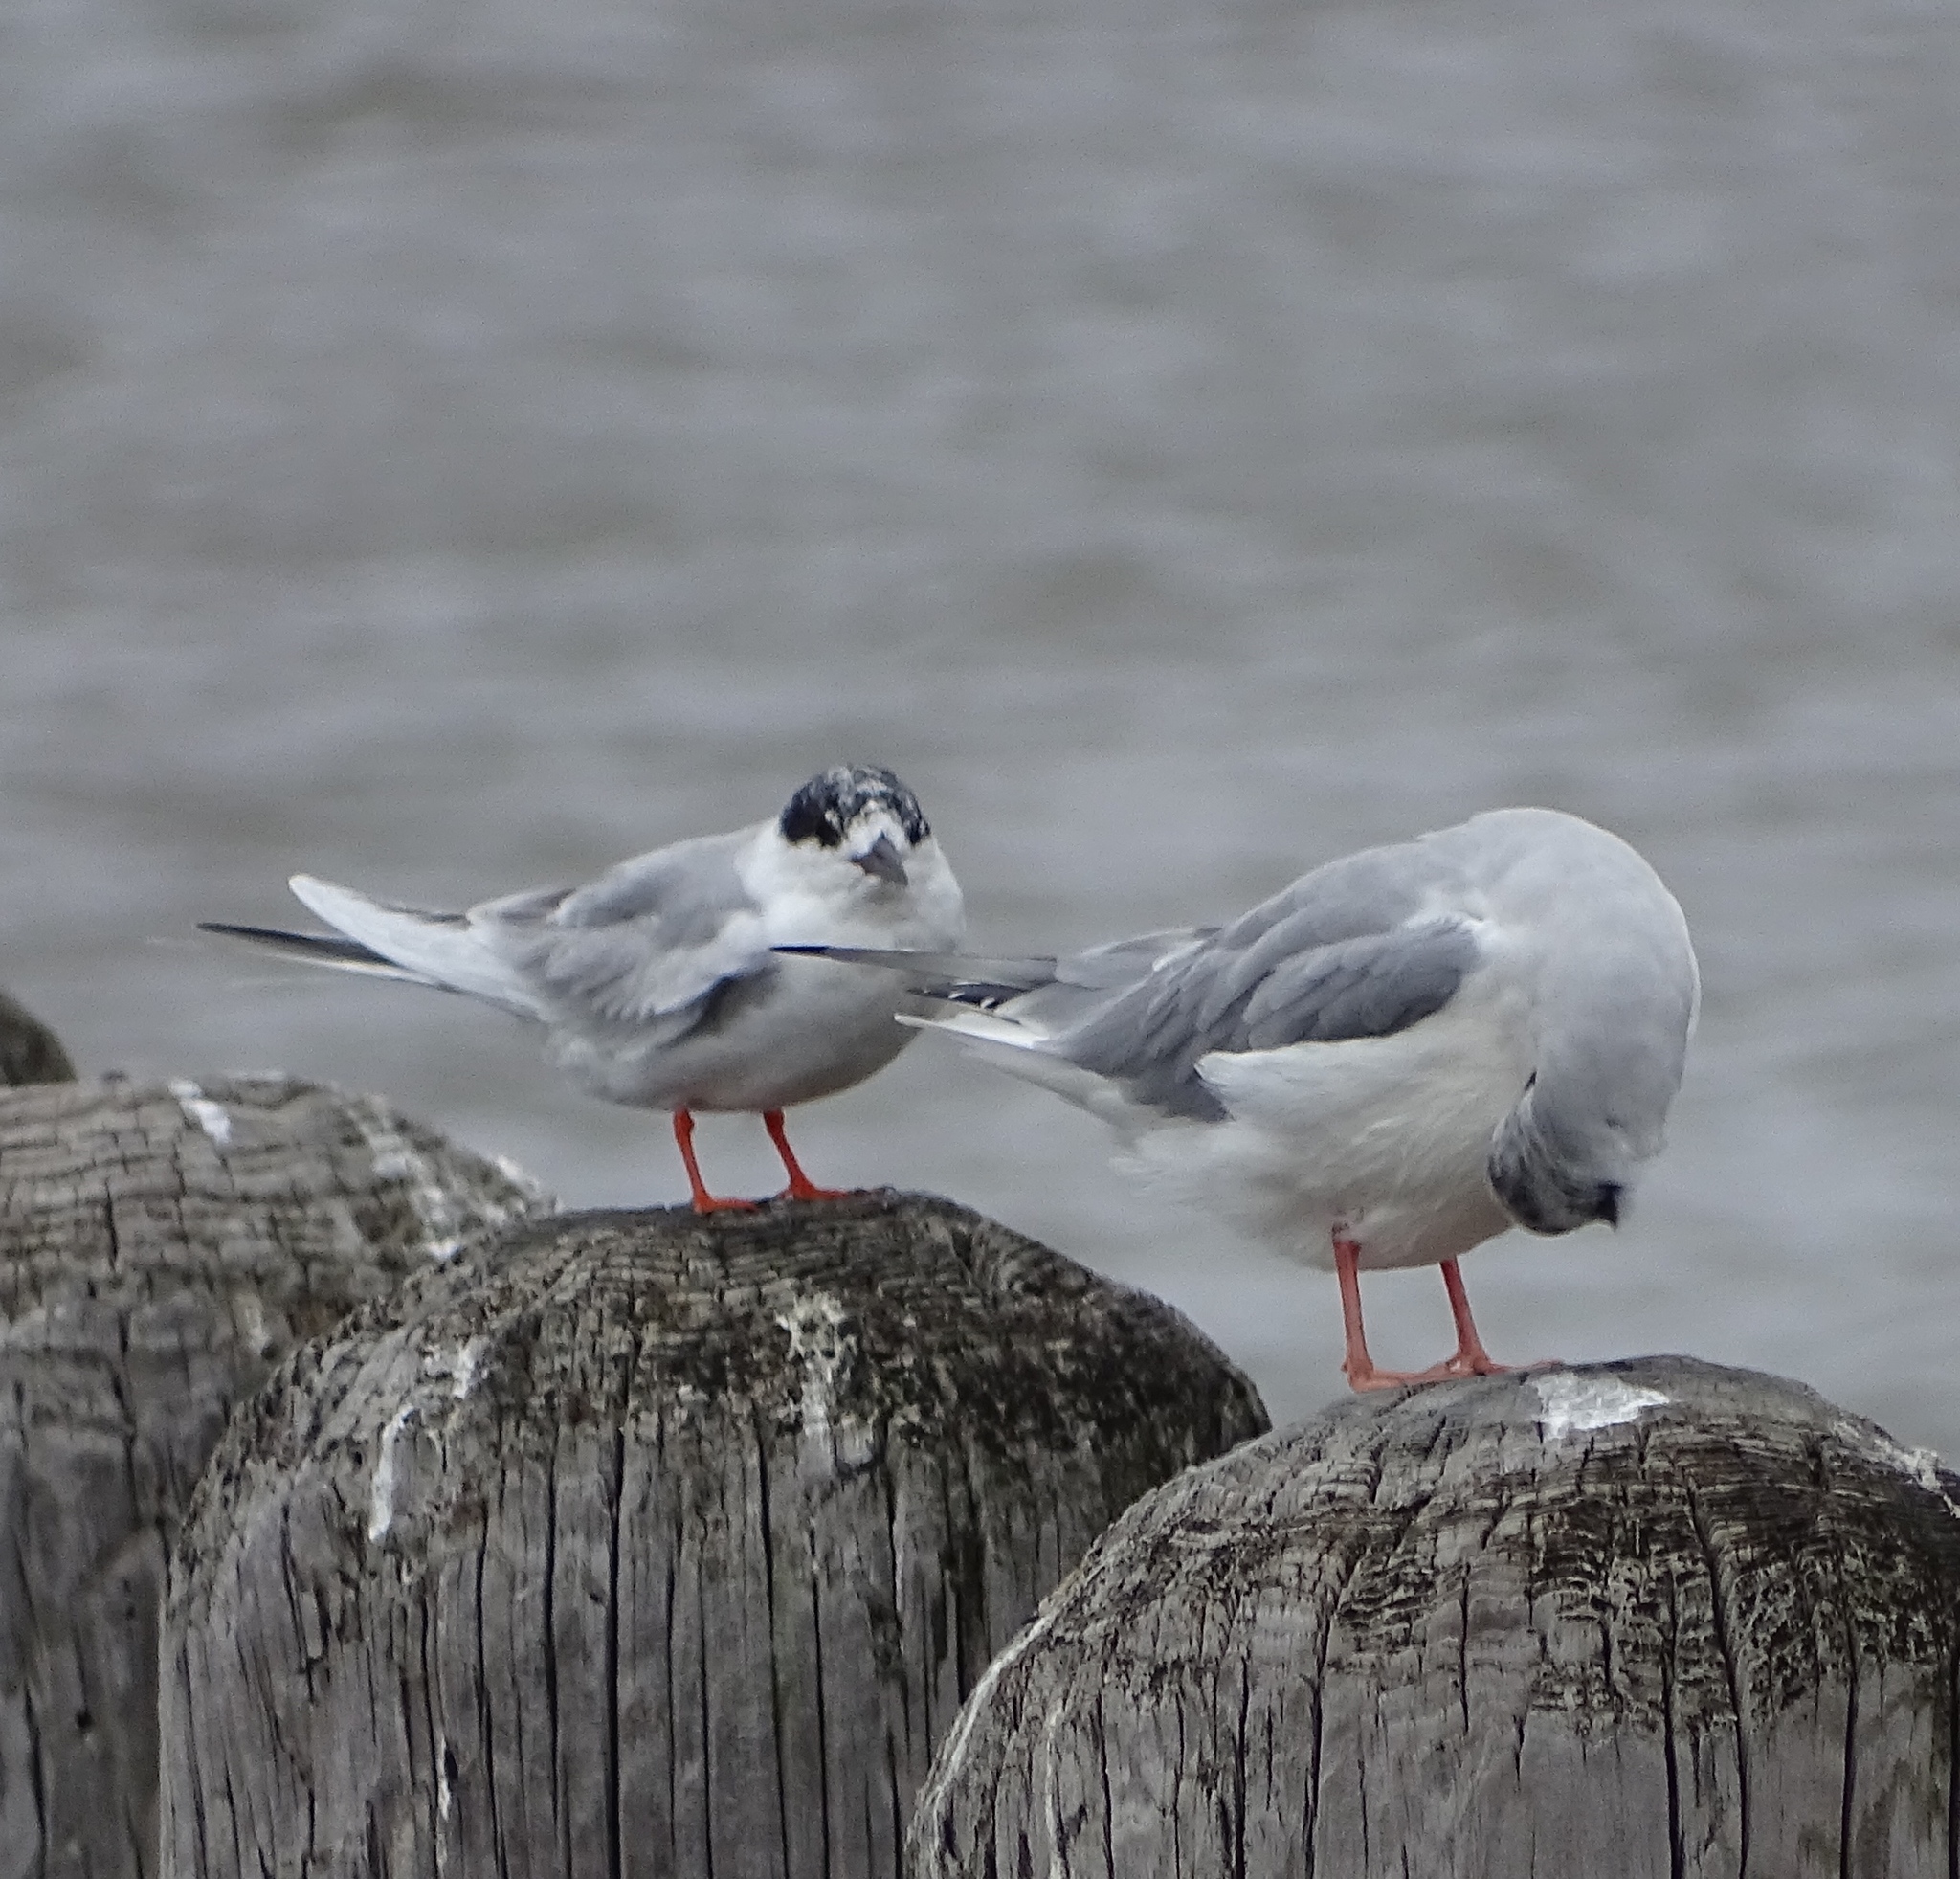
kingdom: Animalia
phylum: Chordata
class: Aves
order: Charadriiformes
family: Laridae
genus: Sterna
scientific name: Sterna forsteri
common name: Forster's tern
